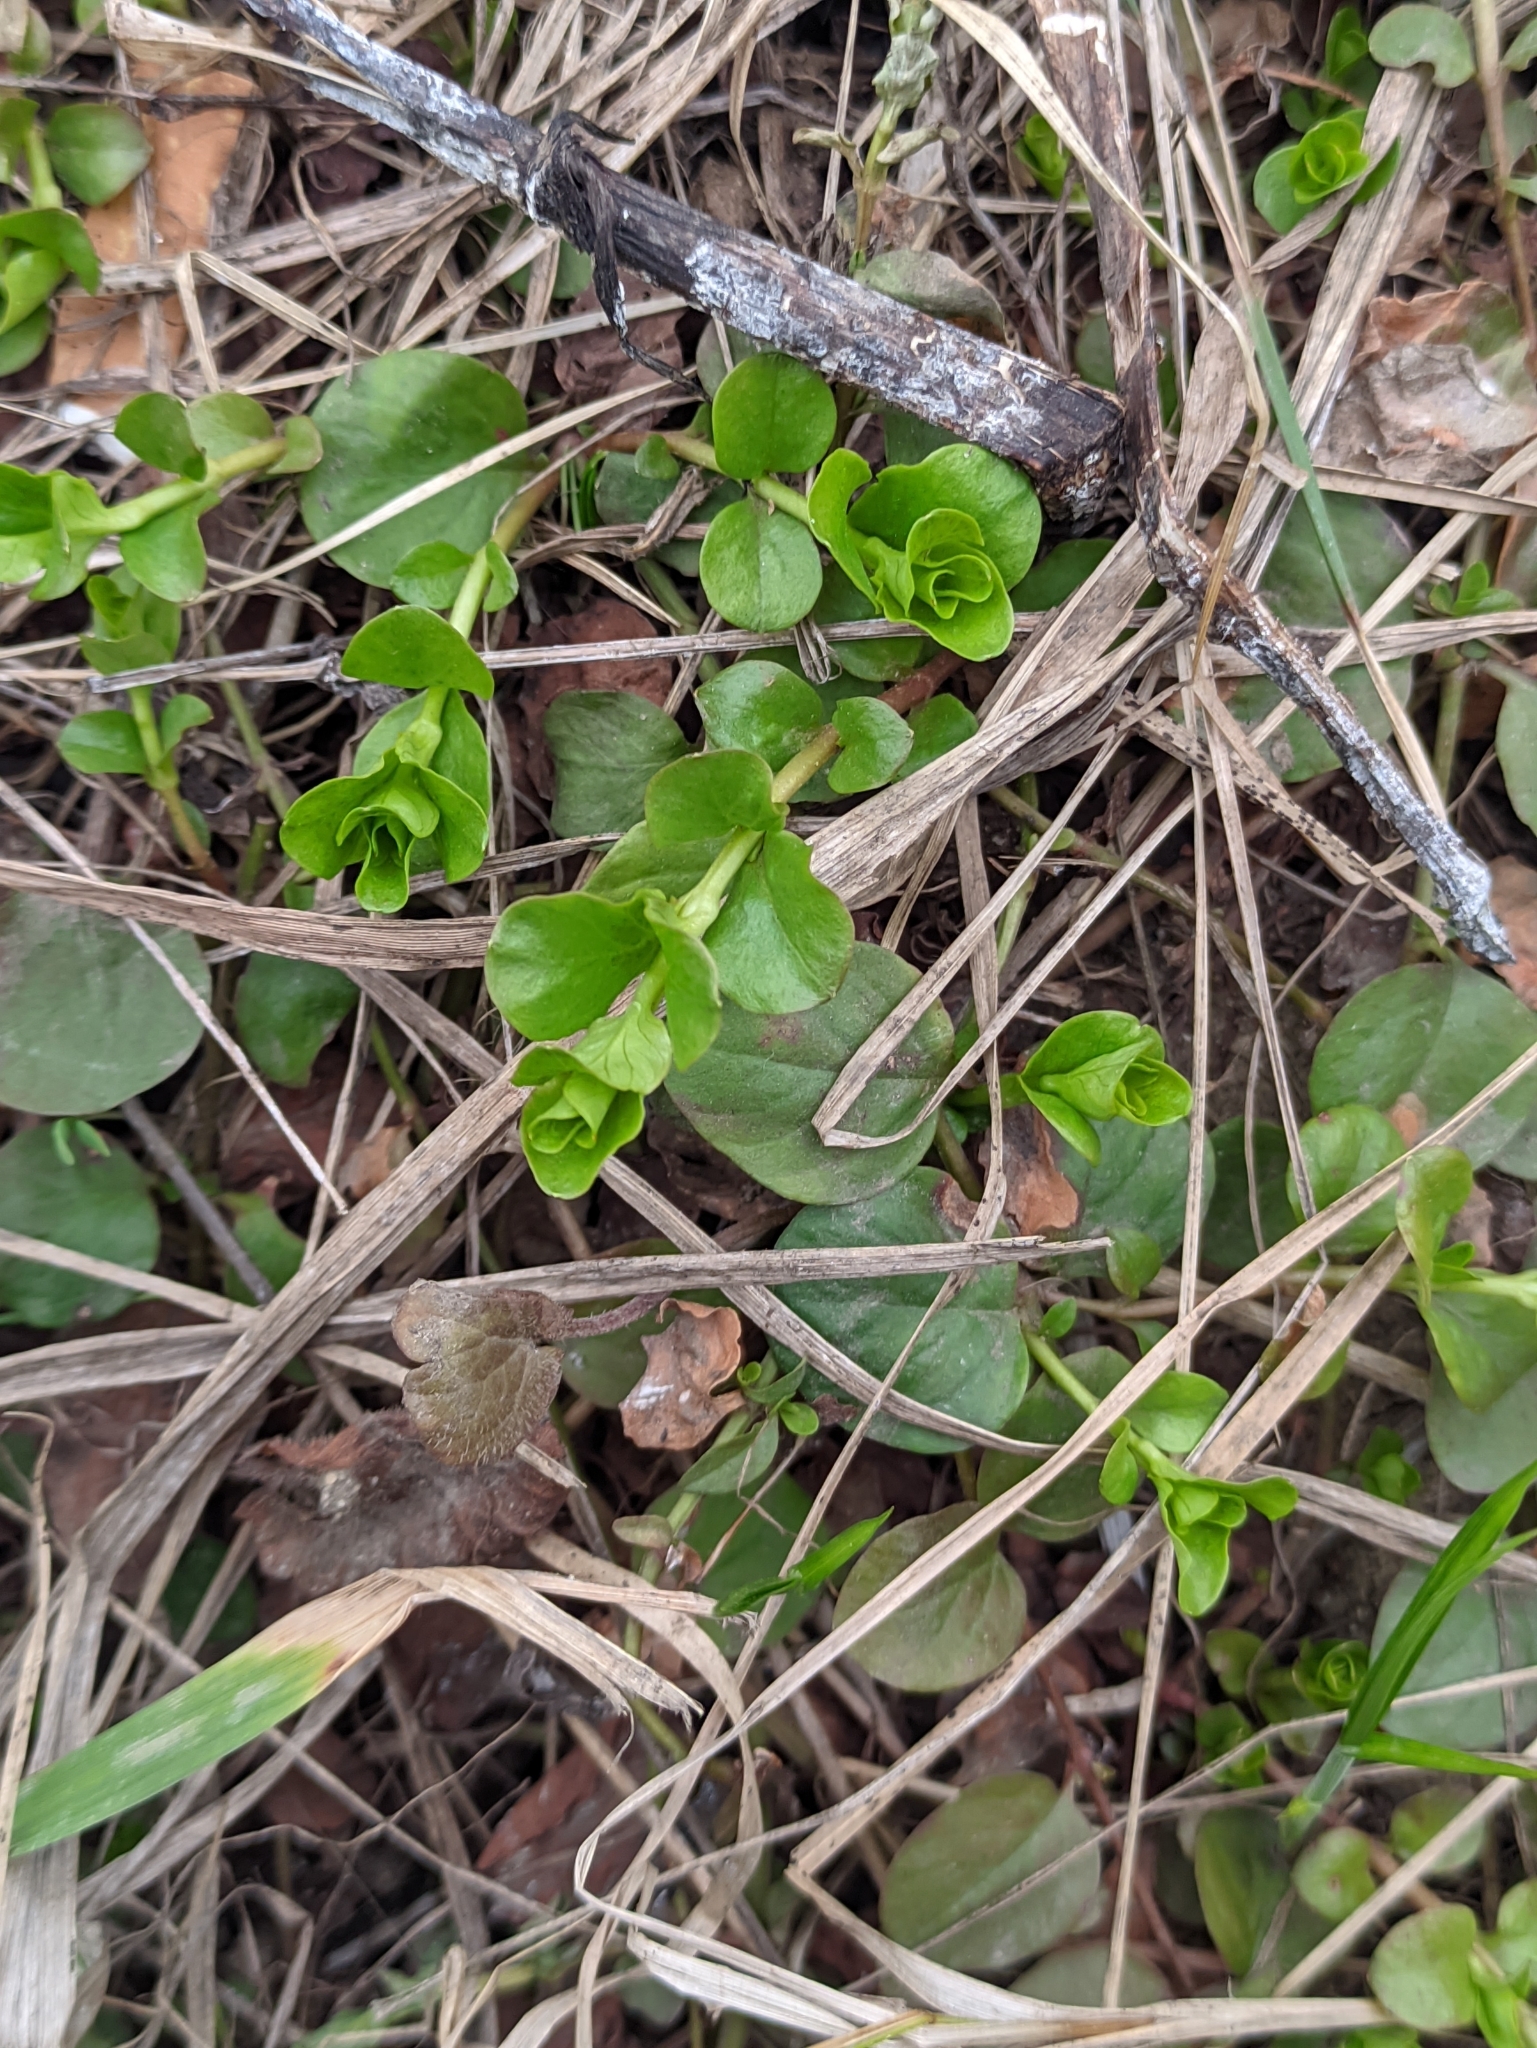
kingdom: Plantae
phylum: Tracheophyta
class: Magnoliopsida
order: Ericales
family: Primulaceae
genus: Lysimachia
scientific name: Lysimachia nummularia
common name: Moneywort
